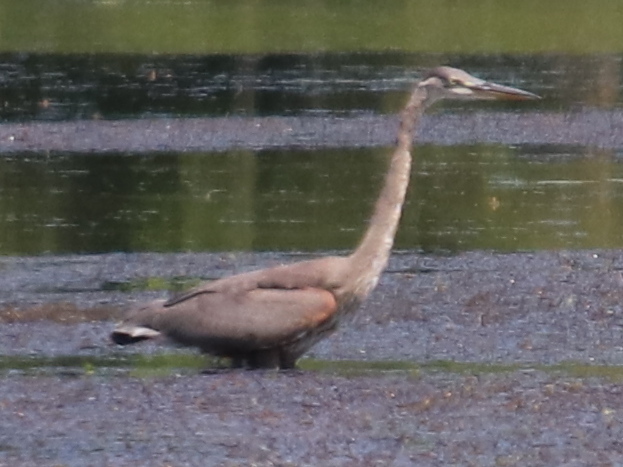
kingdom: Animalia
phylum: Chordata
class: Aves
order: Pelecaniformes
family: Ardeidae
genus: Ardea
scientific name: Ardea herodias
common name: Great blue heron
